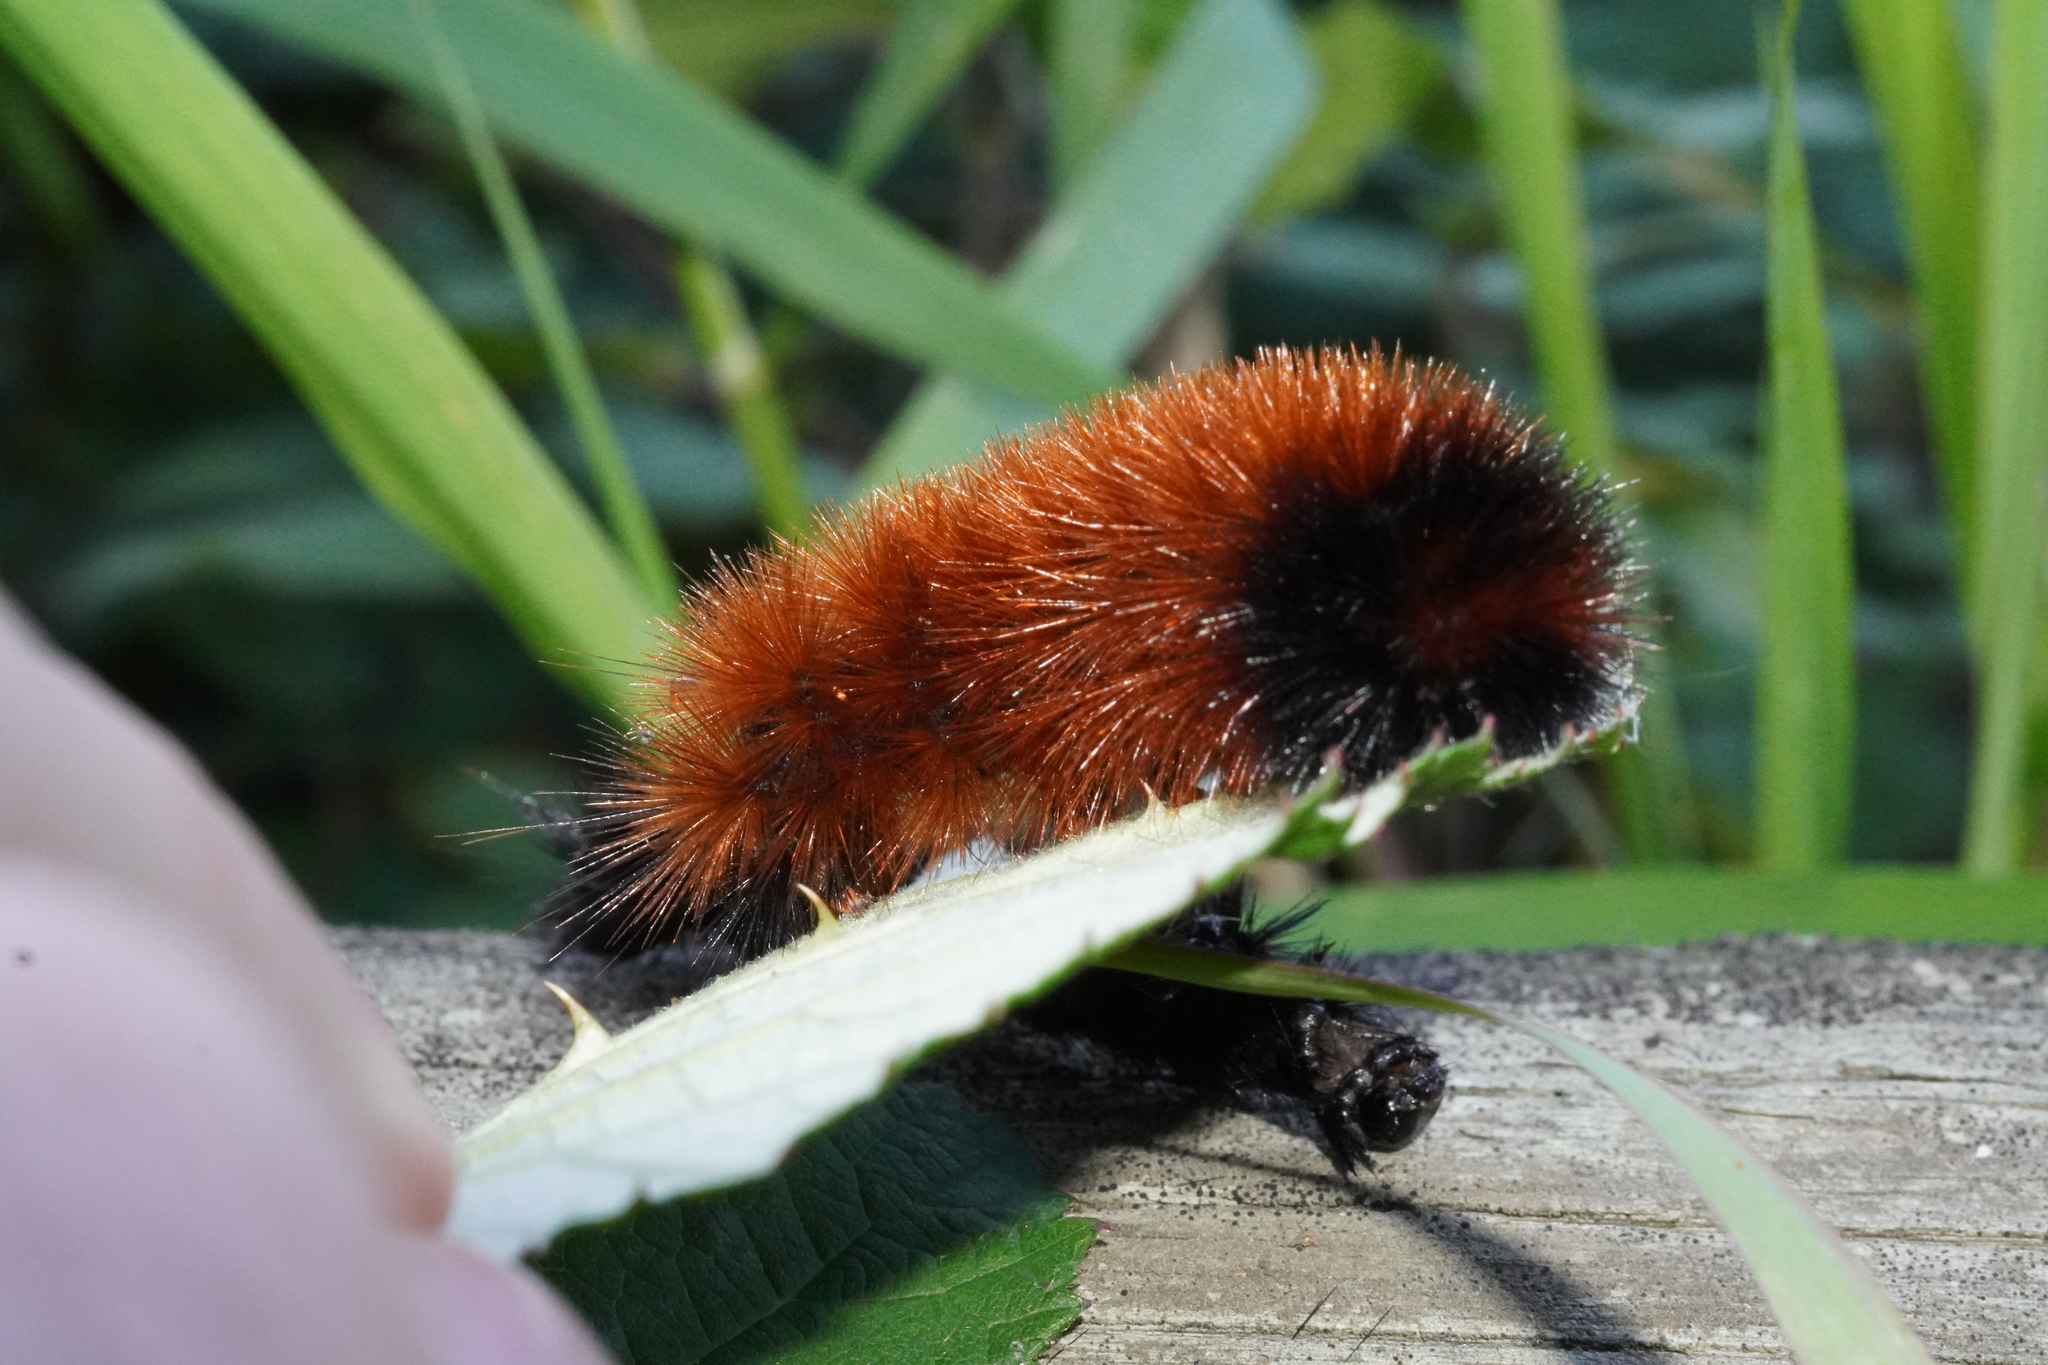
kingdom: Animalia
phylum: Arthropoda
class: Insecta
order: Lepidoptera
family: Erebidae
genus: Pyrrharctia
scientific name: Pyrrharctia isabella
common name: Isabella tiger moth
